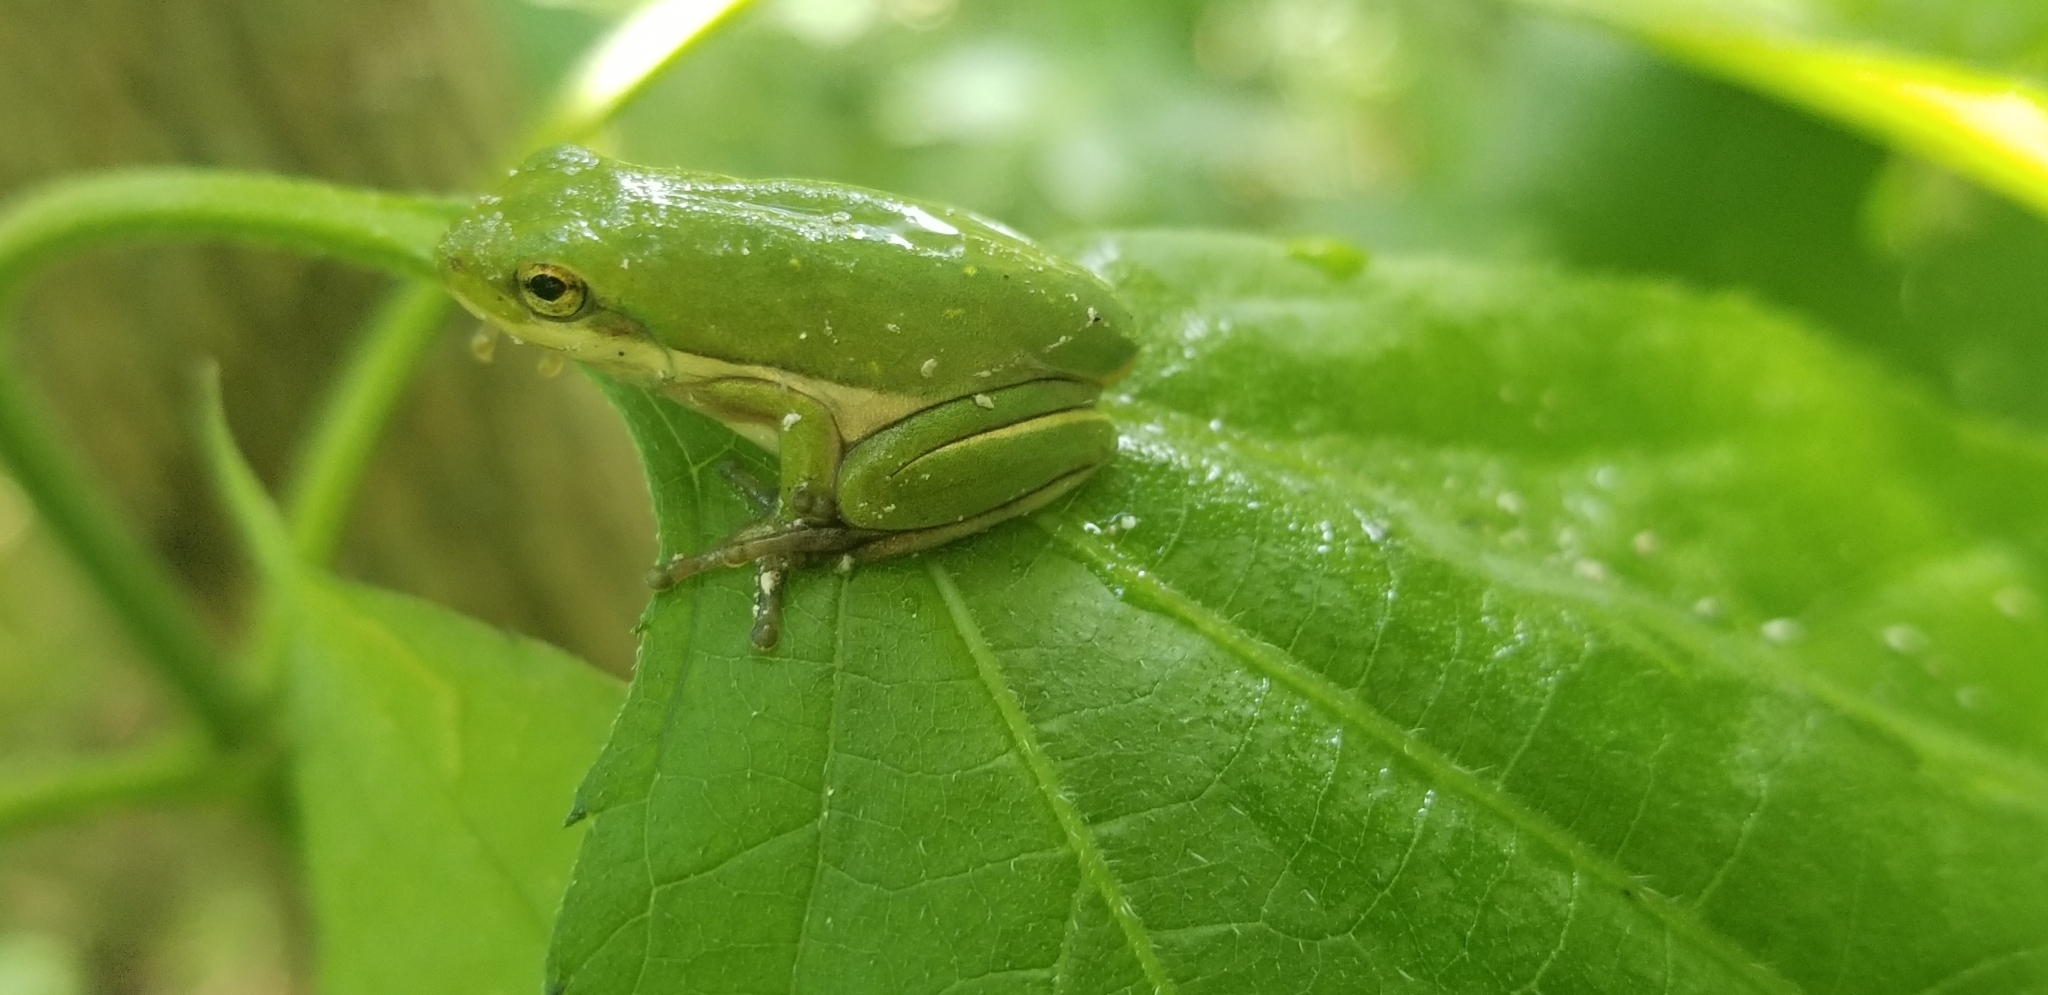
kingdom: Animalia
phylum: Chordata
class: Amphibia
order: Anura
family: Hylidae
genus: Dryophytes
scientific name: Dryophytes cinereus
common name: Green treefrog
